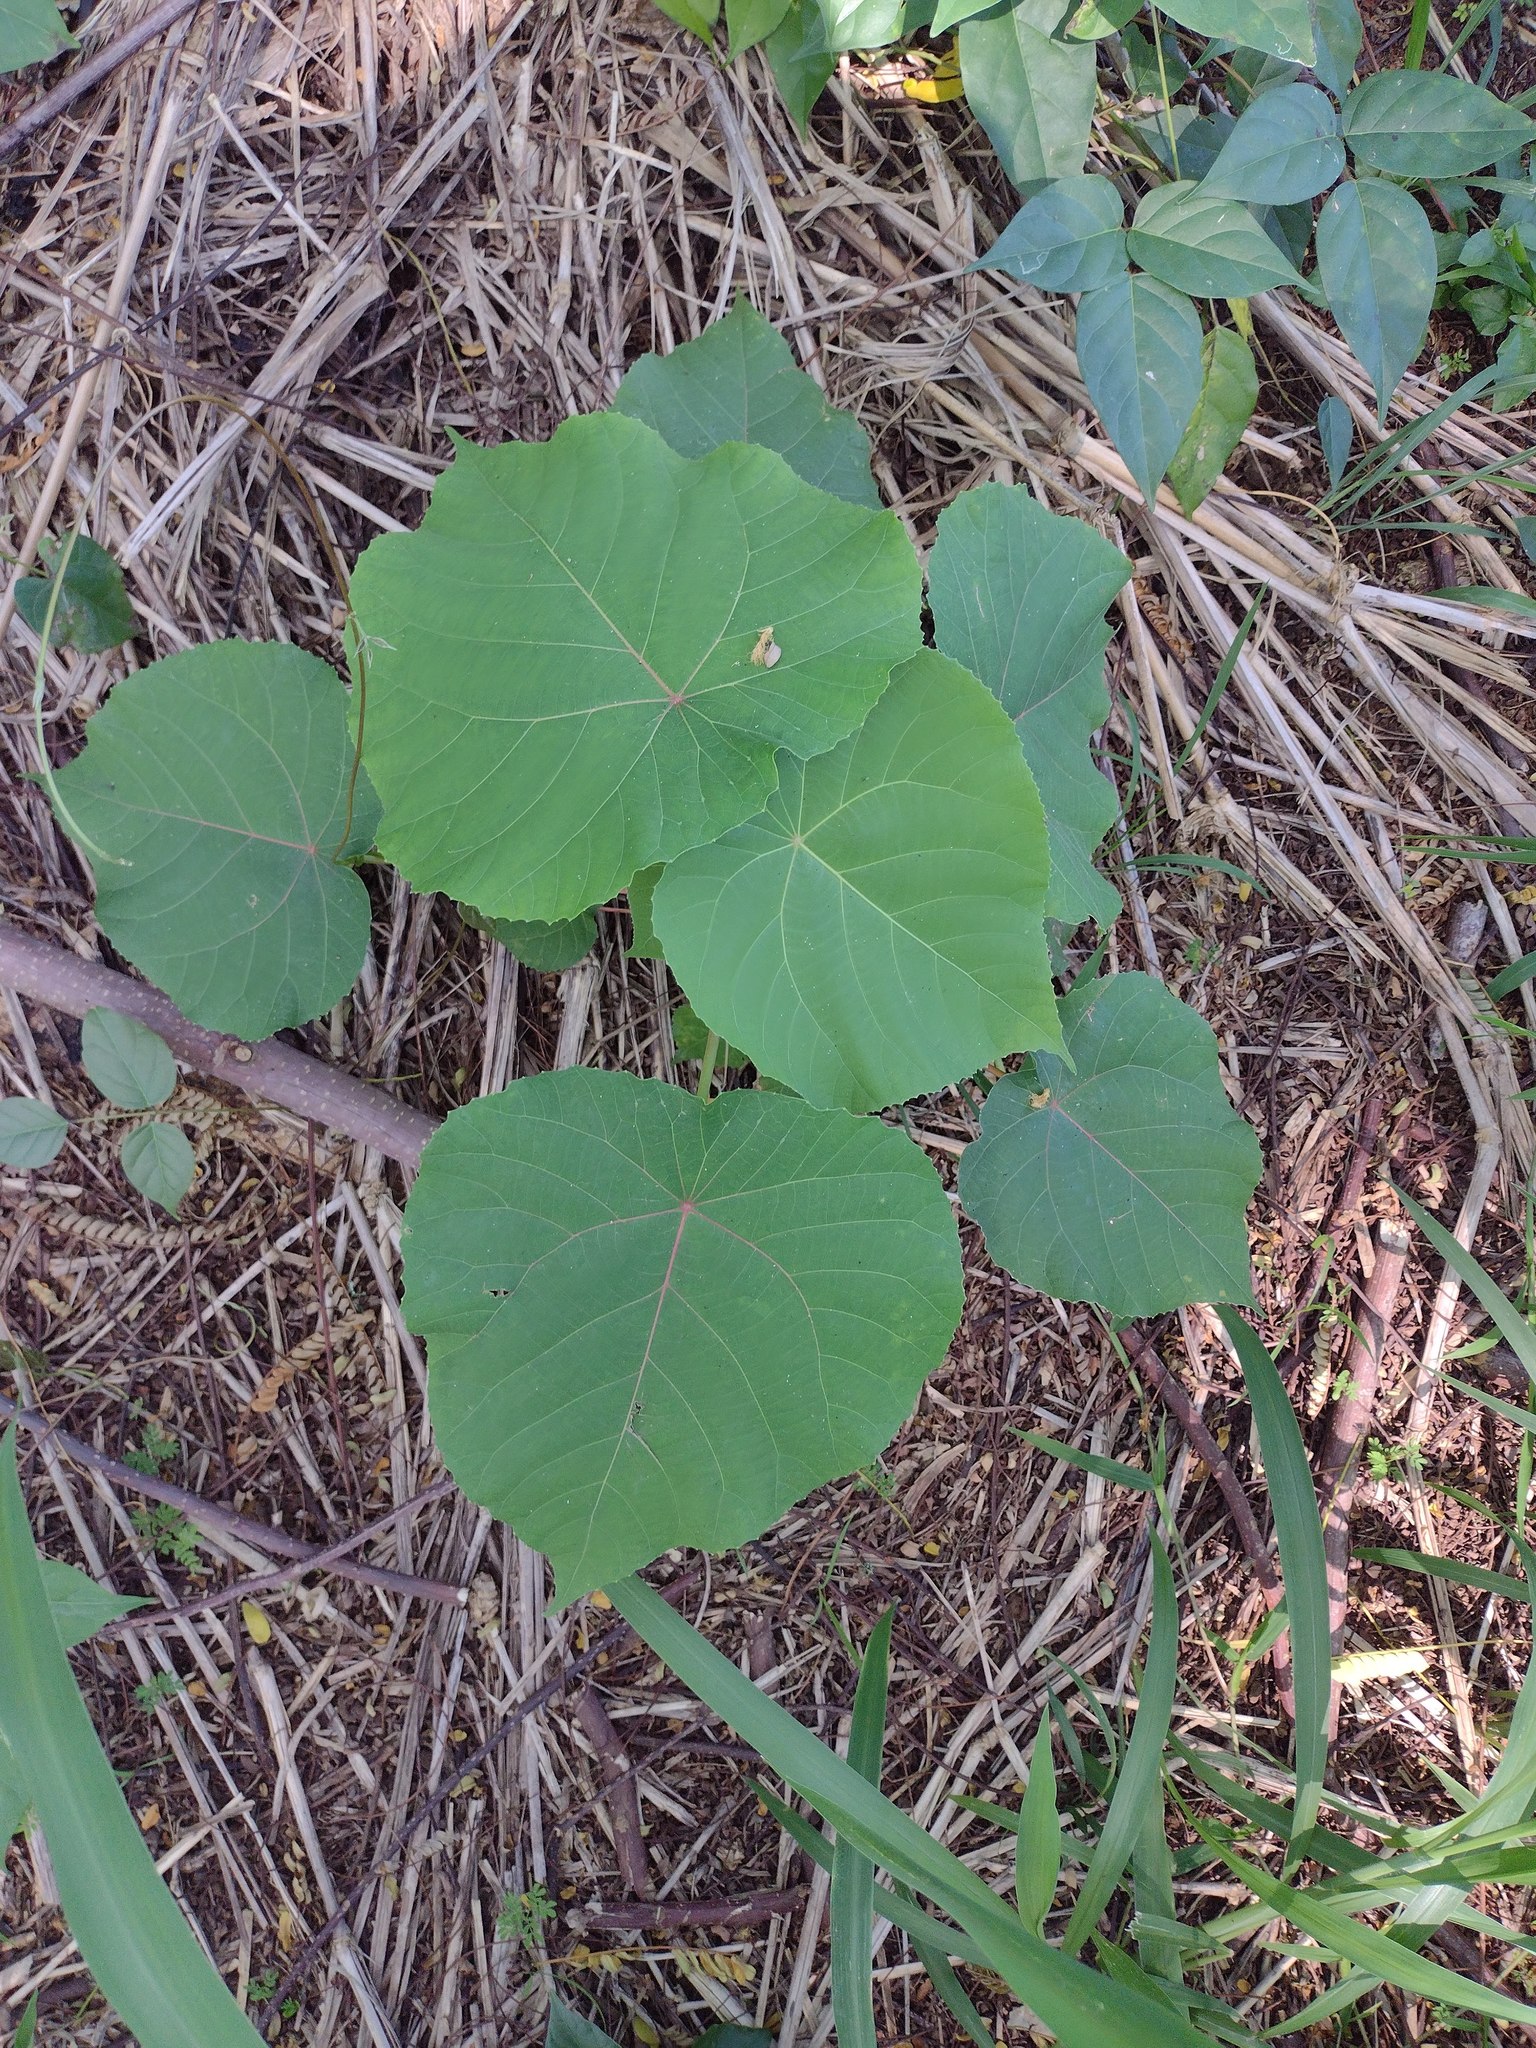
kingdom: Plantae
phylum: Tracheophyta
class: Magnoliopsida
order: Malpighiales
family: Euphorbiaceae
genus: Macaranga
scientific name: Macaranga tanarius
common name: Parasol leaf tree
